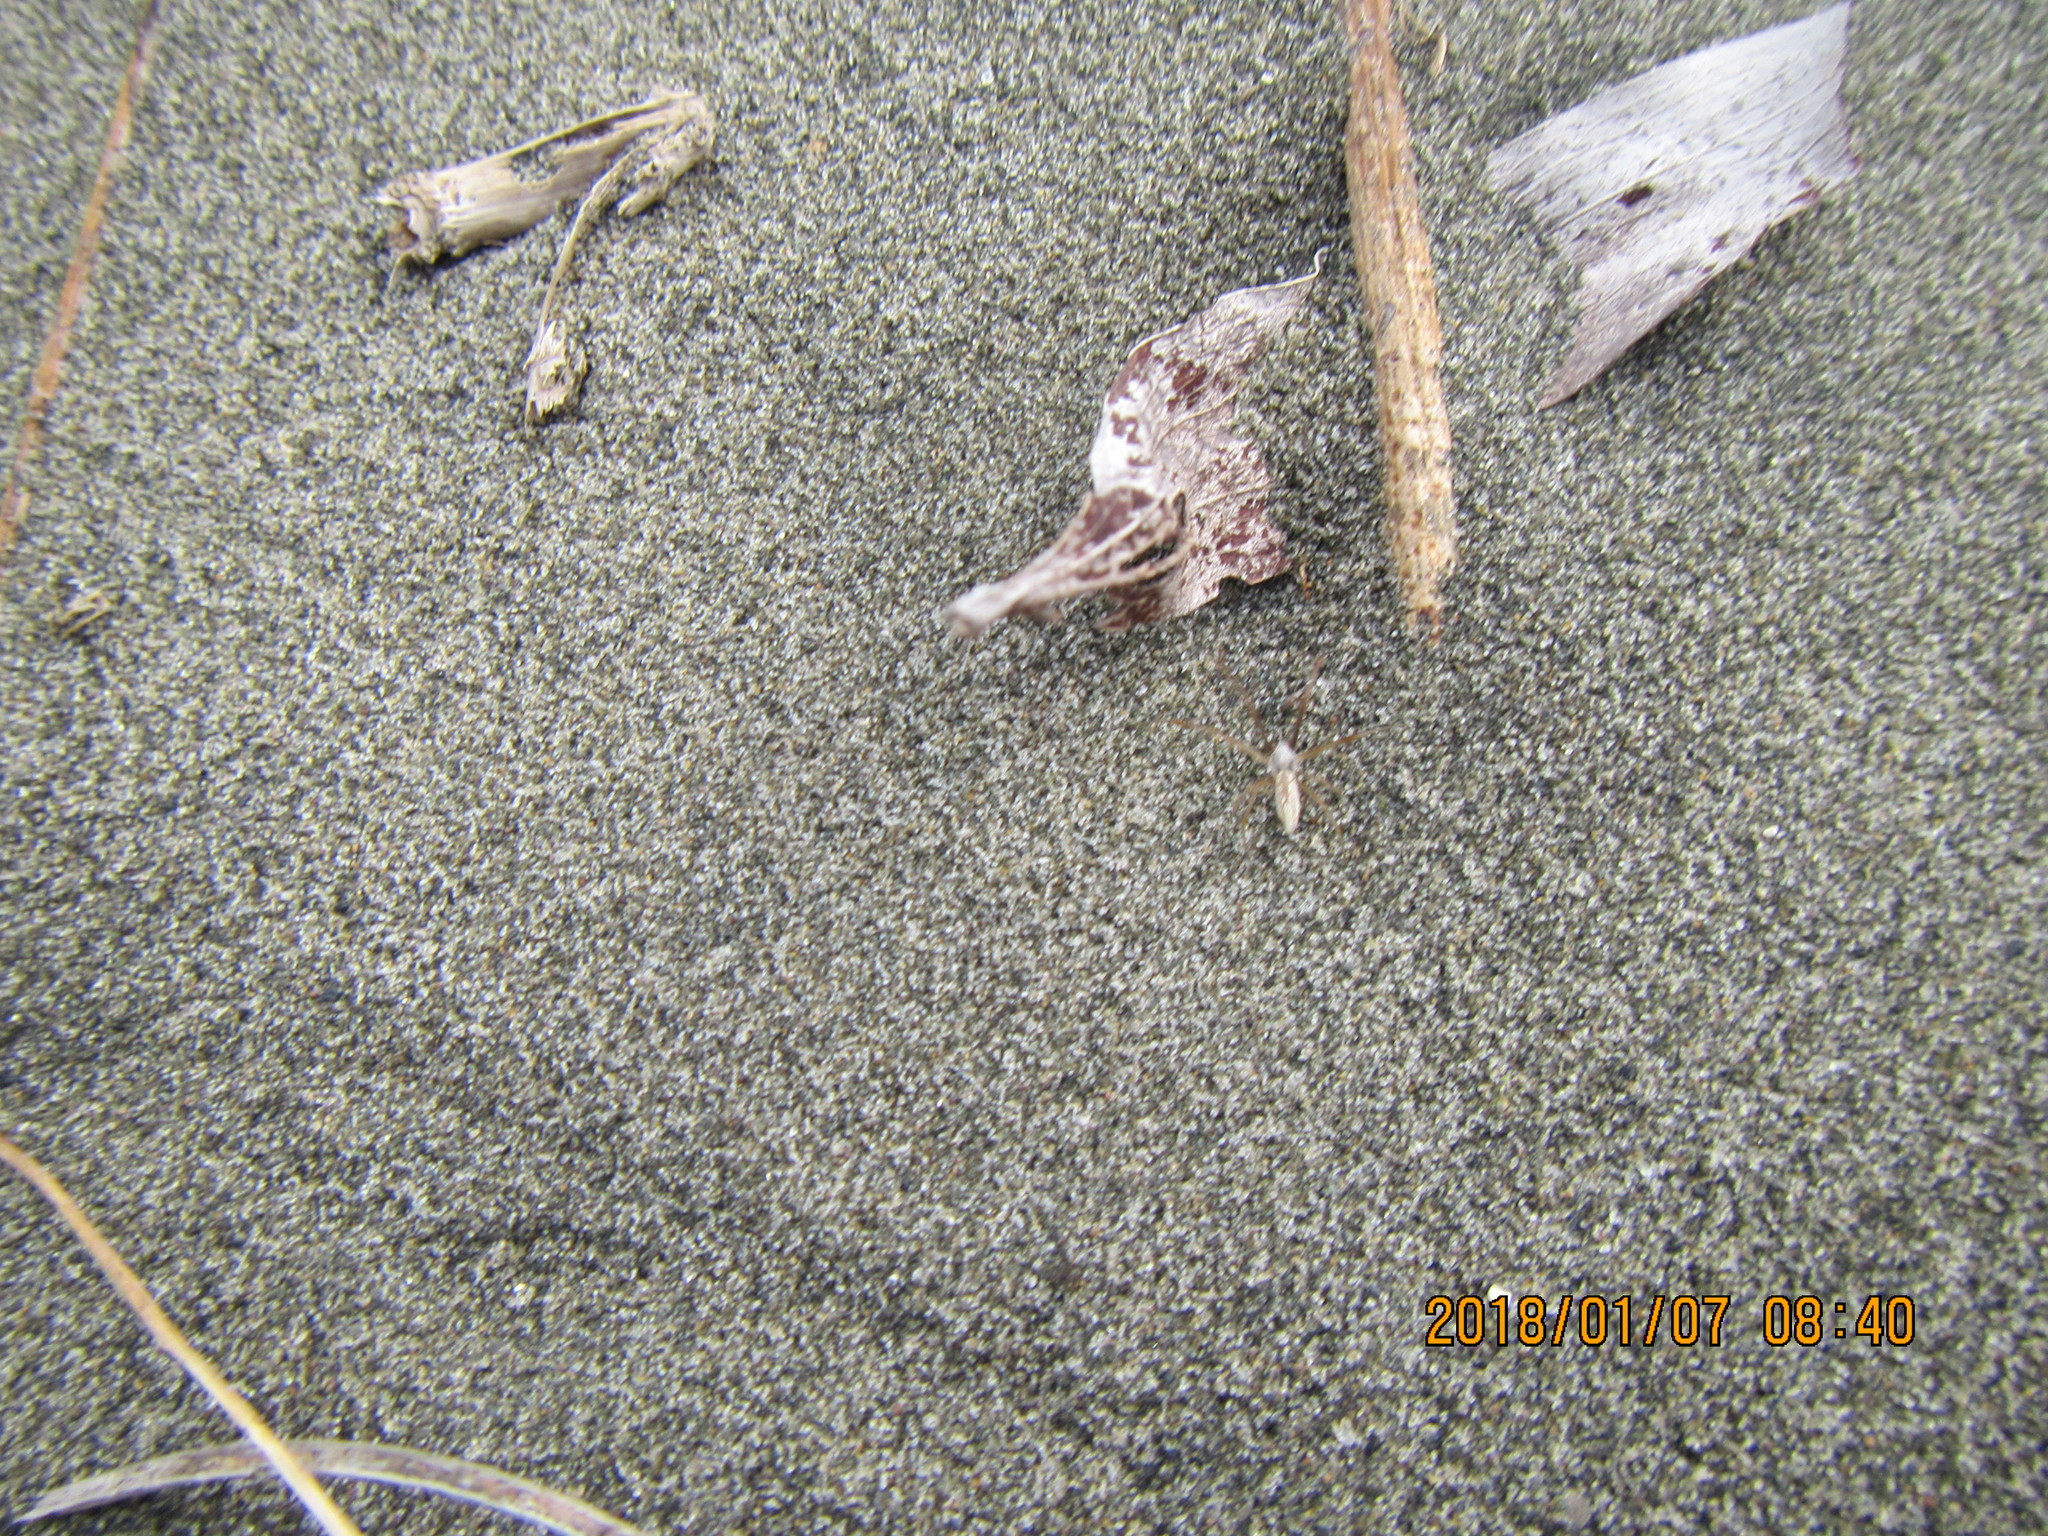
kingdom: Animalia
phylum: Arthropoda
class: Arachnida
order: Araneae
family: Araneidae
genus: Argiope
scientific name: Argiope protensa
